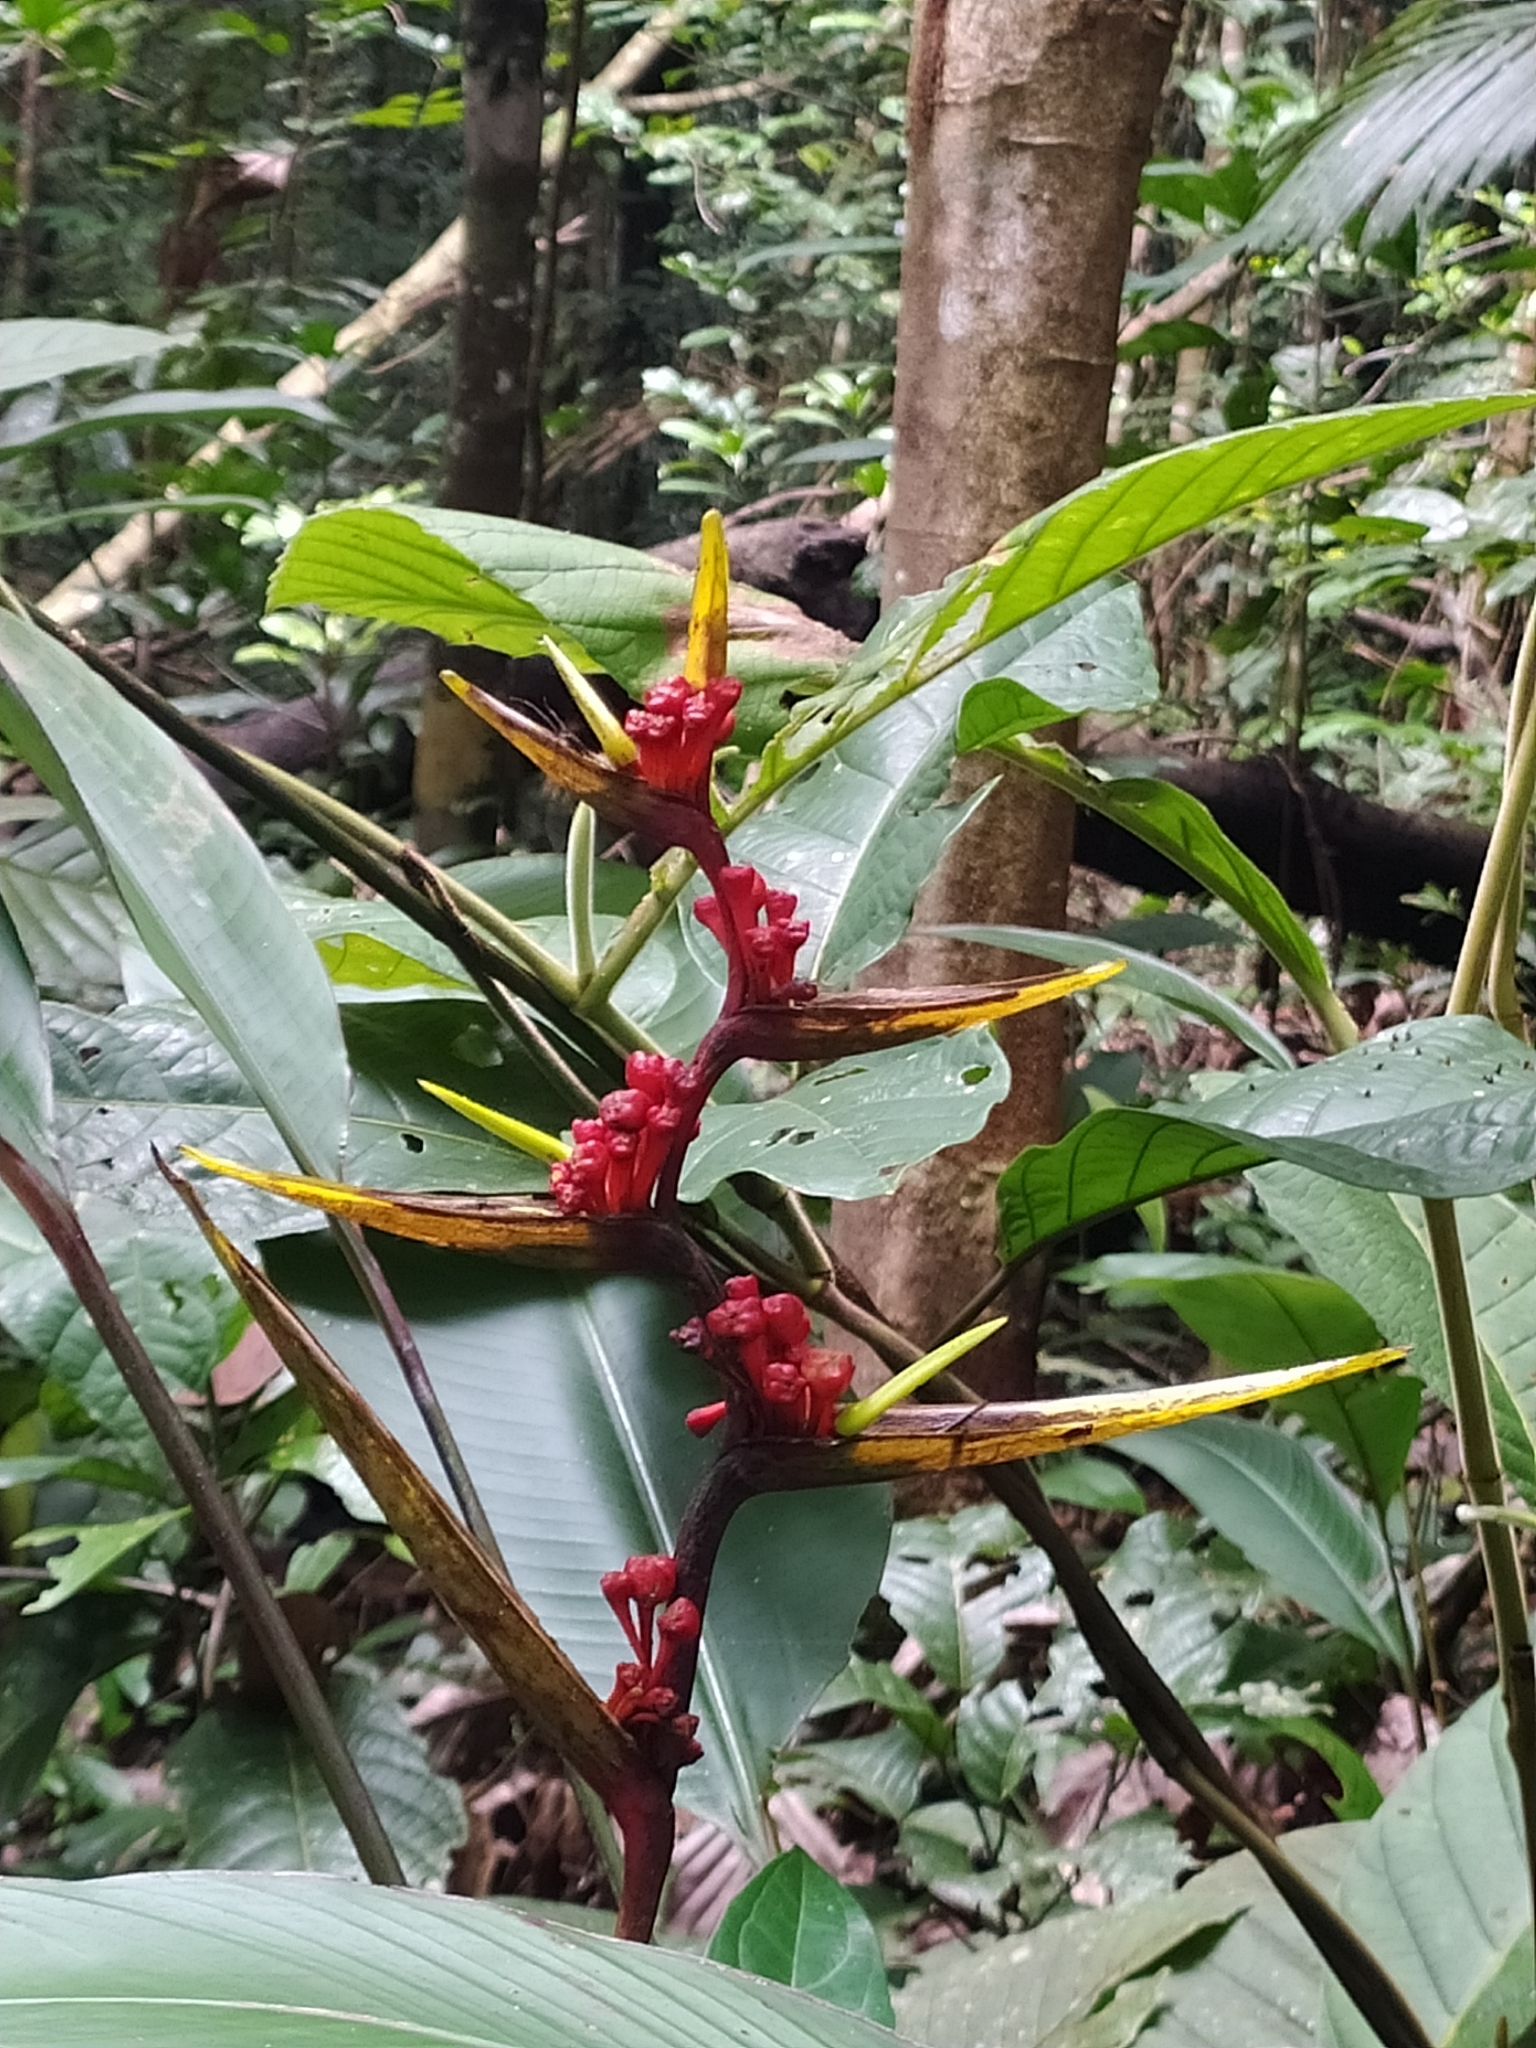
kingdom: Plantae
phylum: Tracheophyta
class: Liliopsida
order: Zingiberales
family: Heliconiaceae
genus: Heliconia
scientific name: Heliconia richardiana
